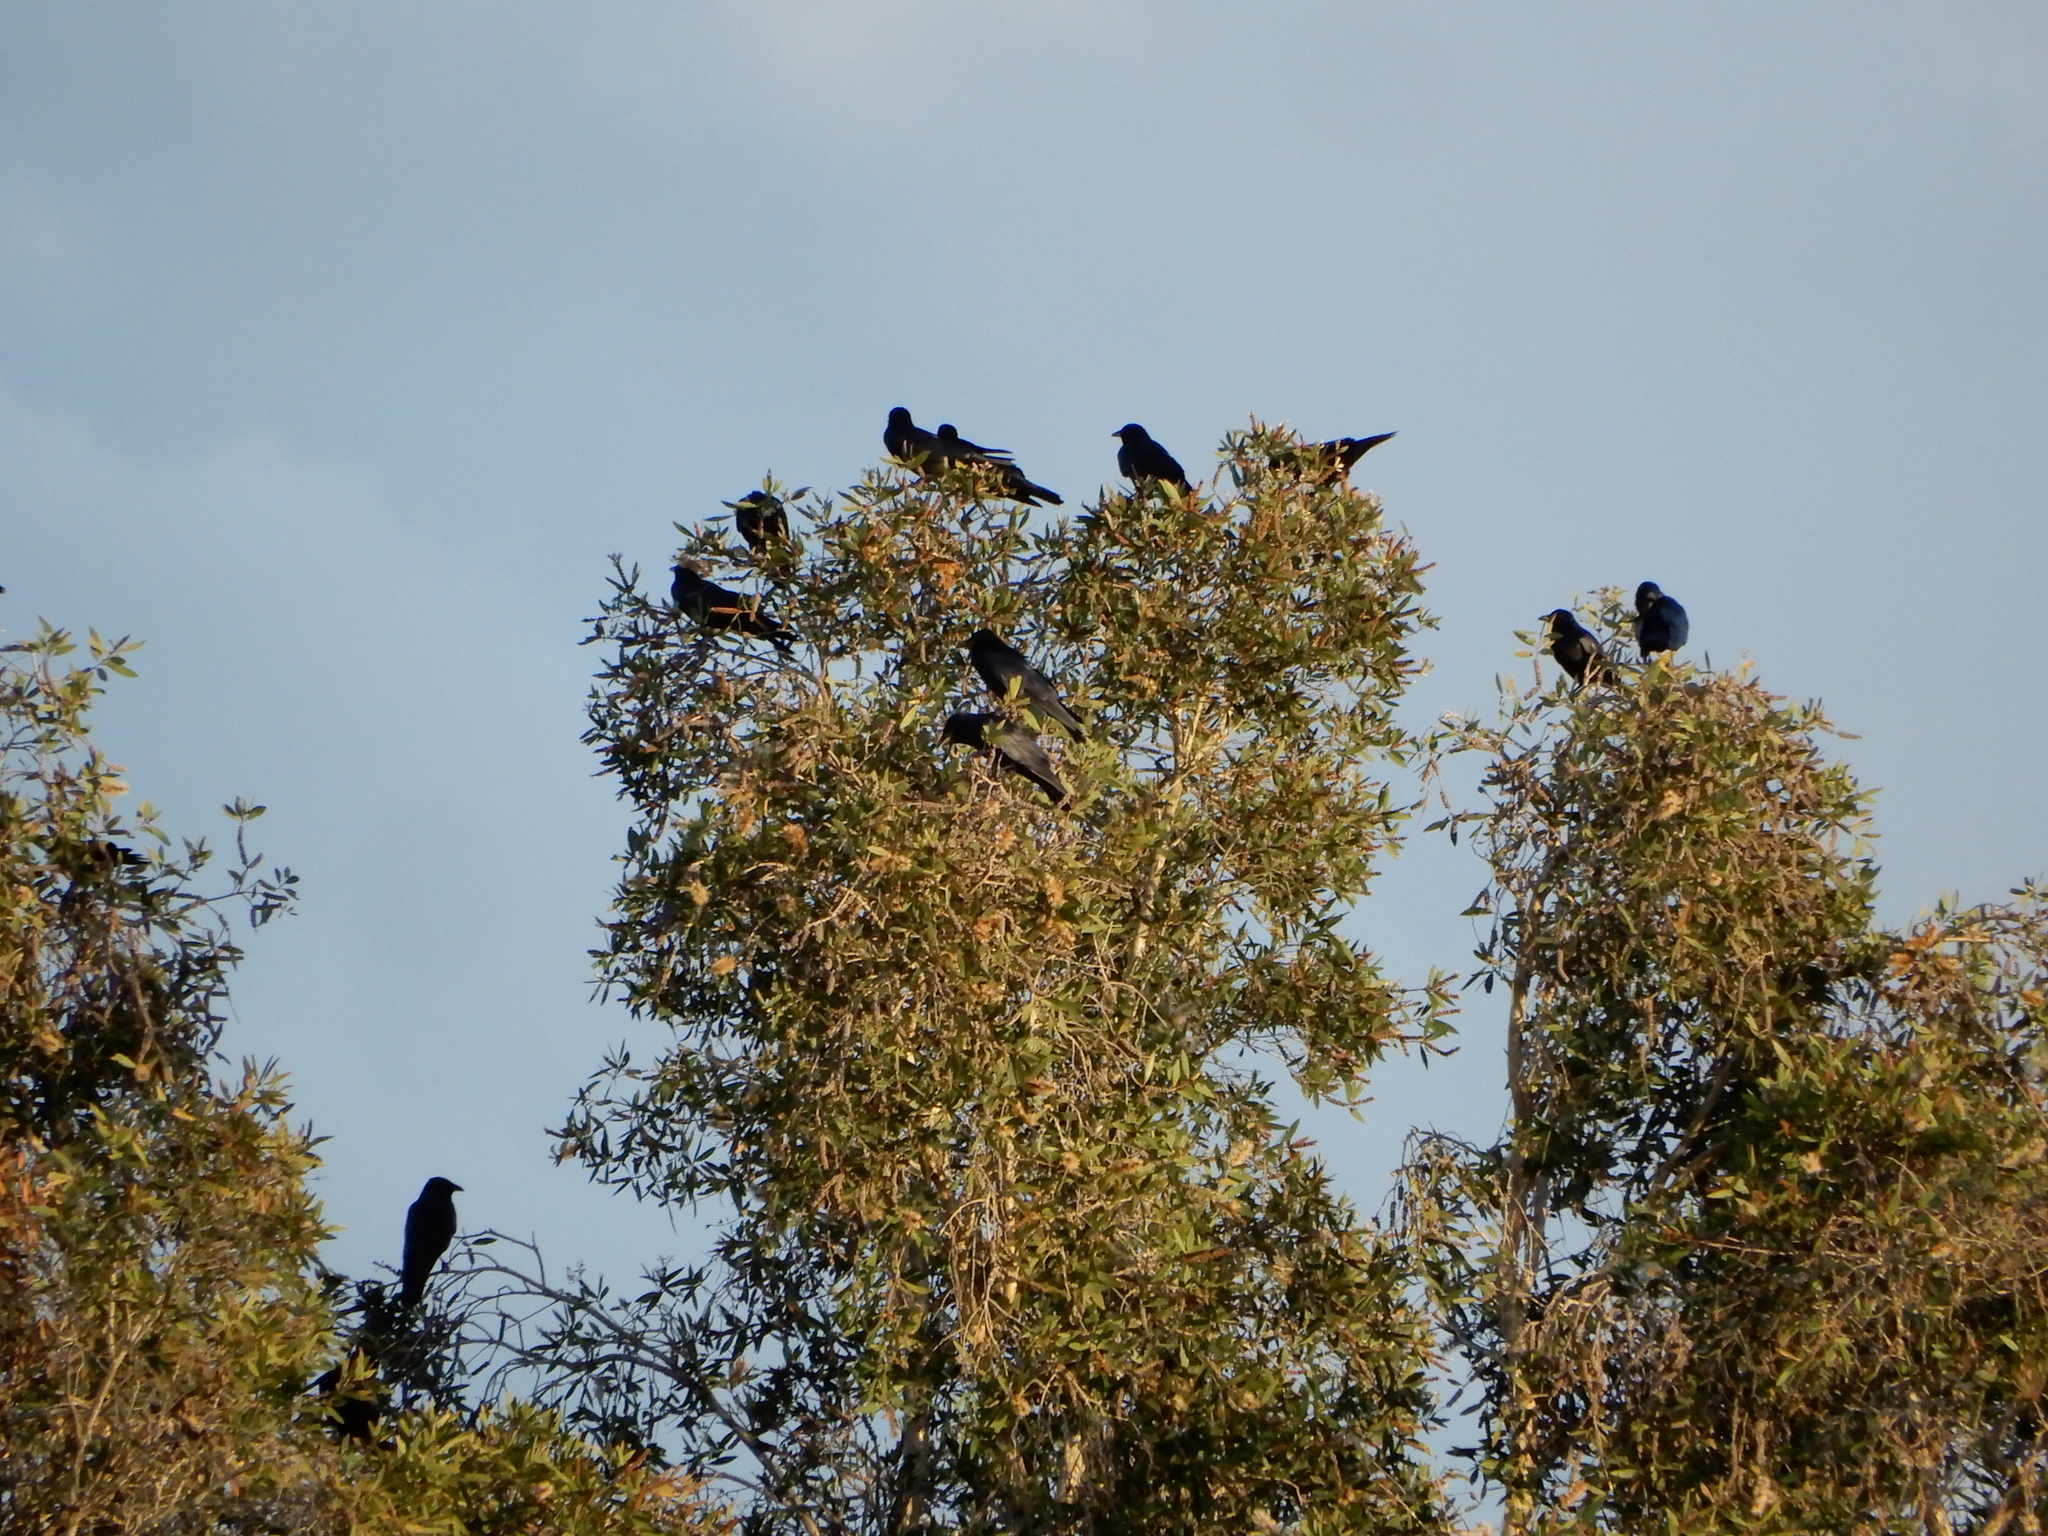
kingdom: Animalia
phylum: Chordata
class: Aves
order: Passeriformes
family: Corvidae
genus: Corvus
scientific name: Corvus ossifragus
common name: Fish crow
